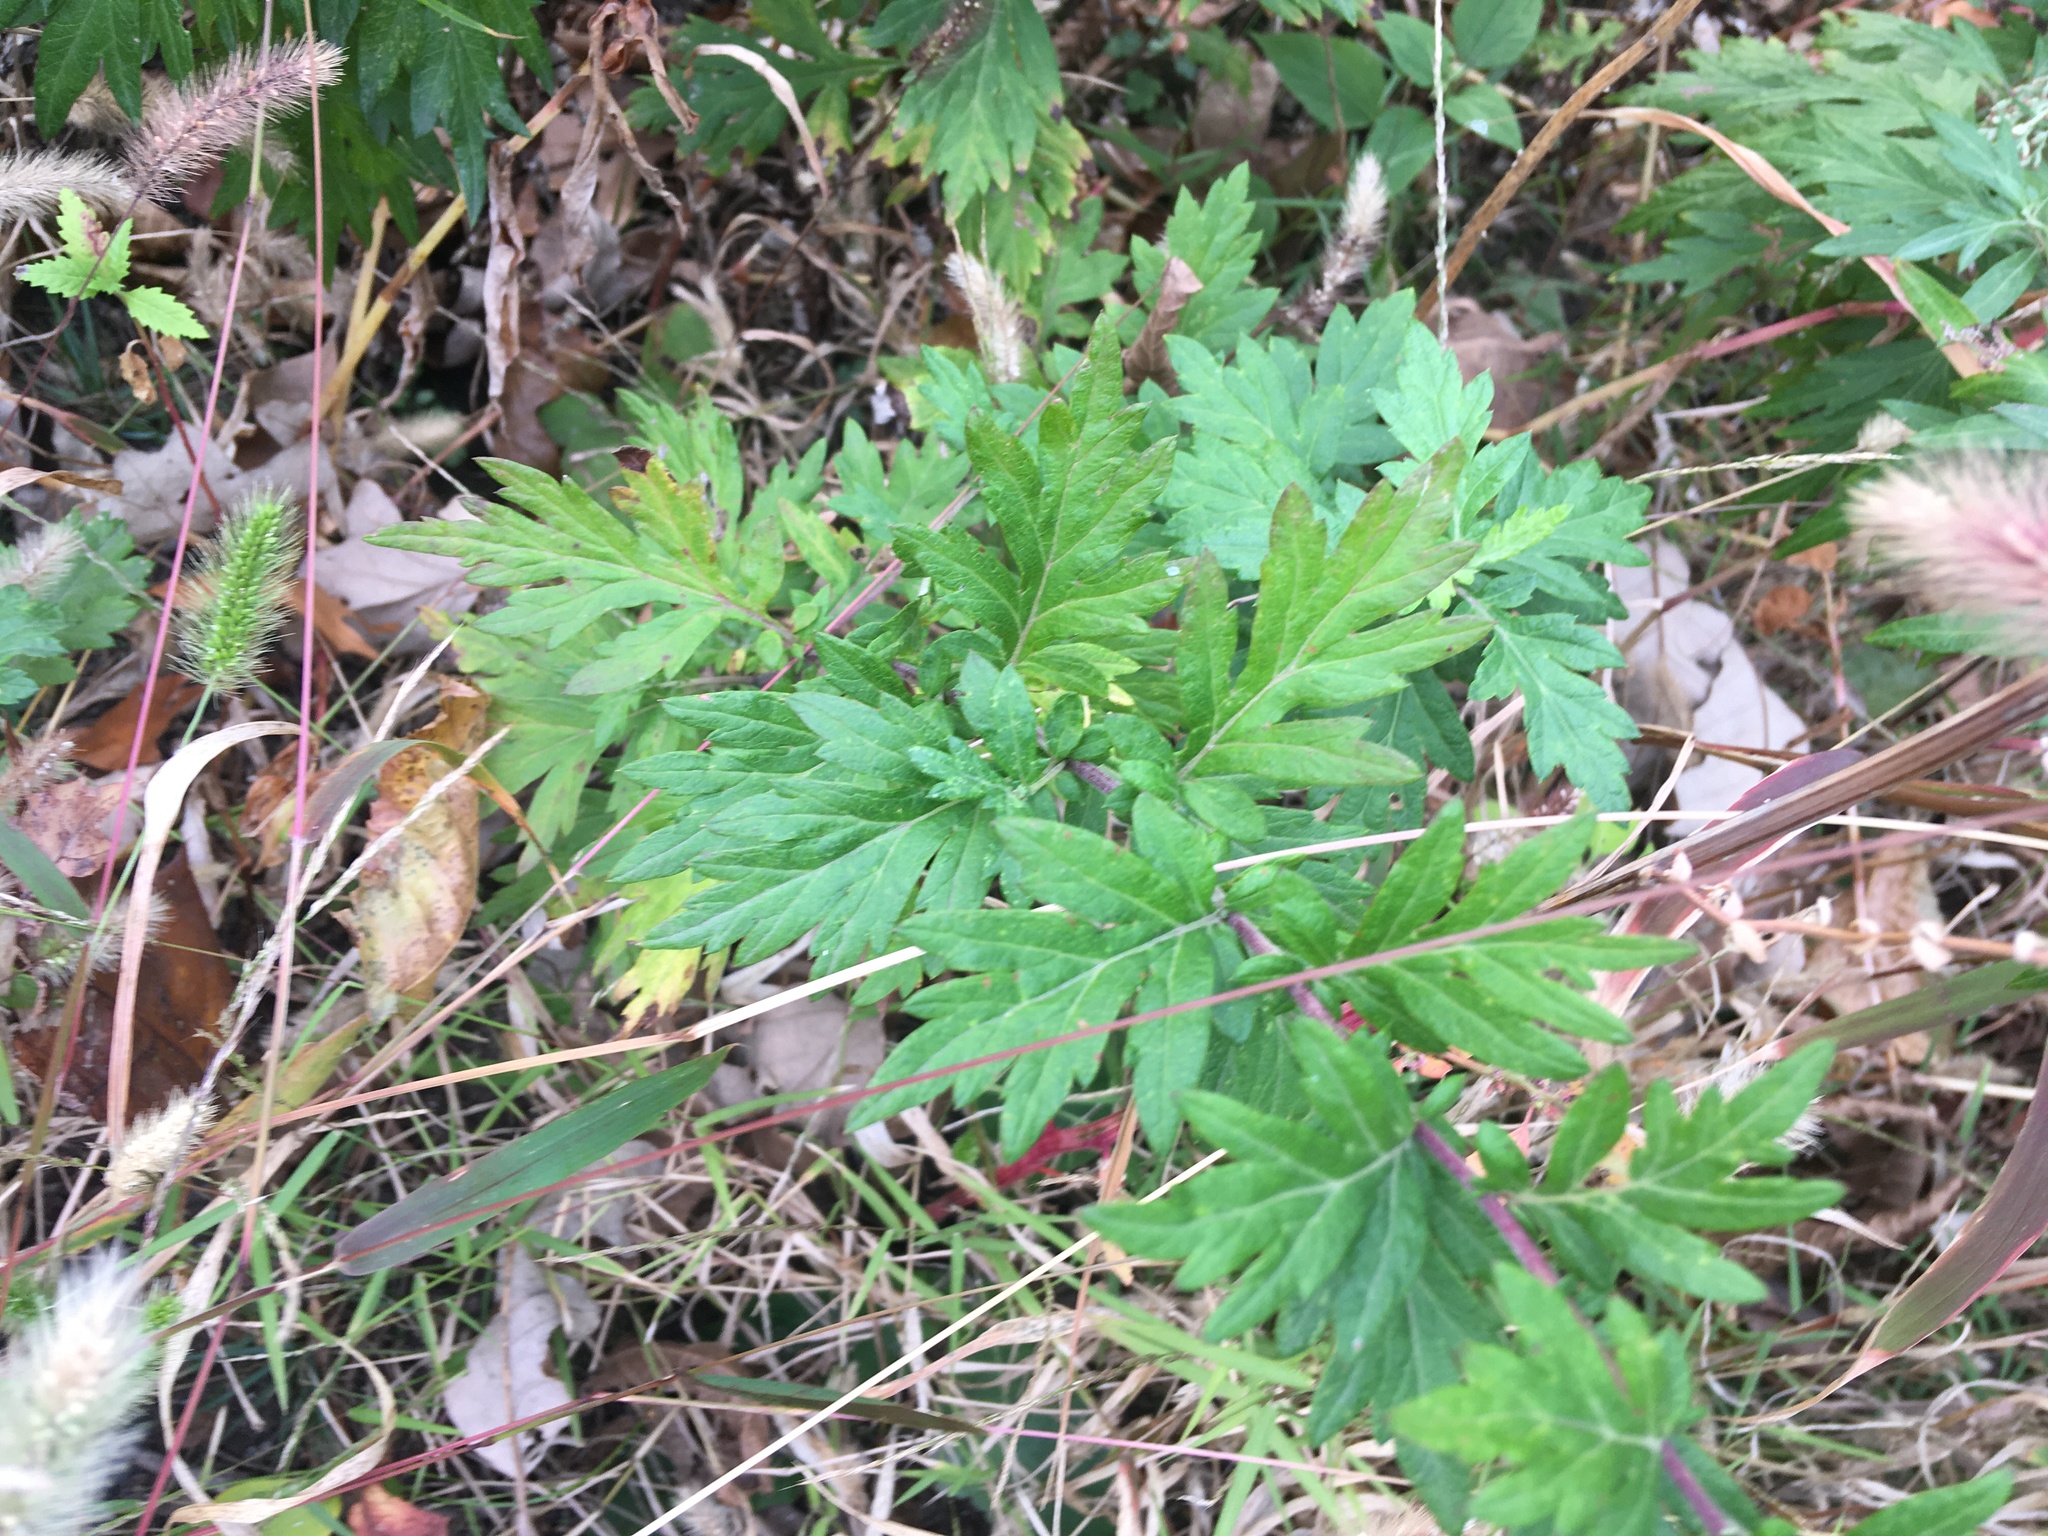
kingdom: Plantae
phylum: Tracheophyta
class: Magnoliopsida
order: Asterales
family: Asteraceae
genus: Artemisia
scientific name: Artemisia vulgaris
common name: Mugwort
